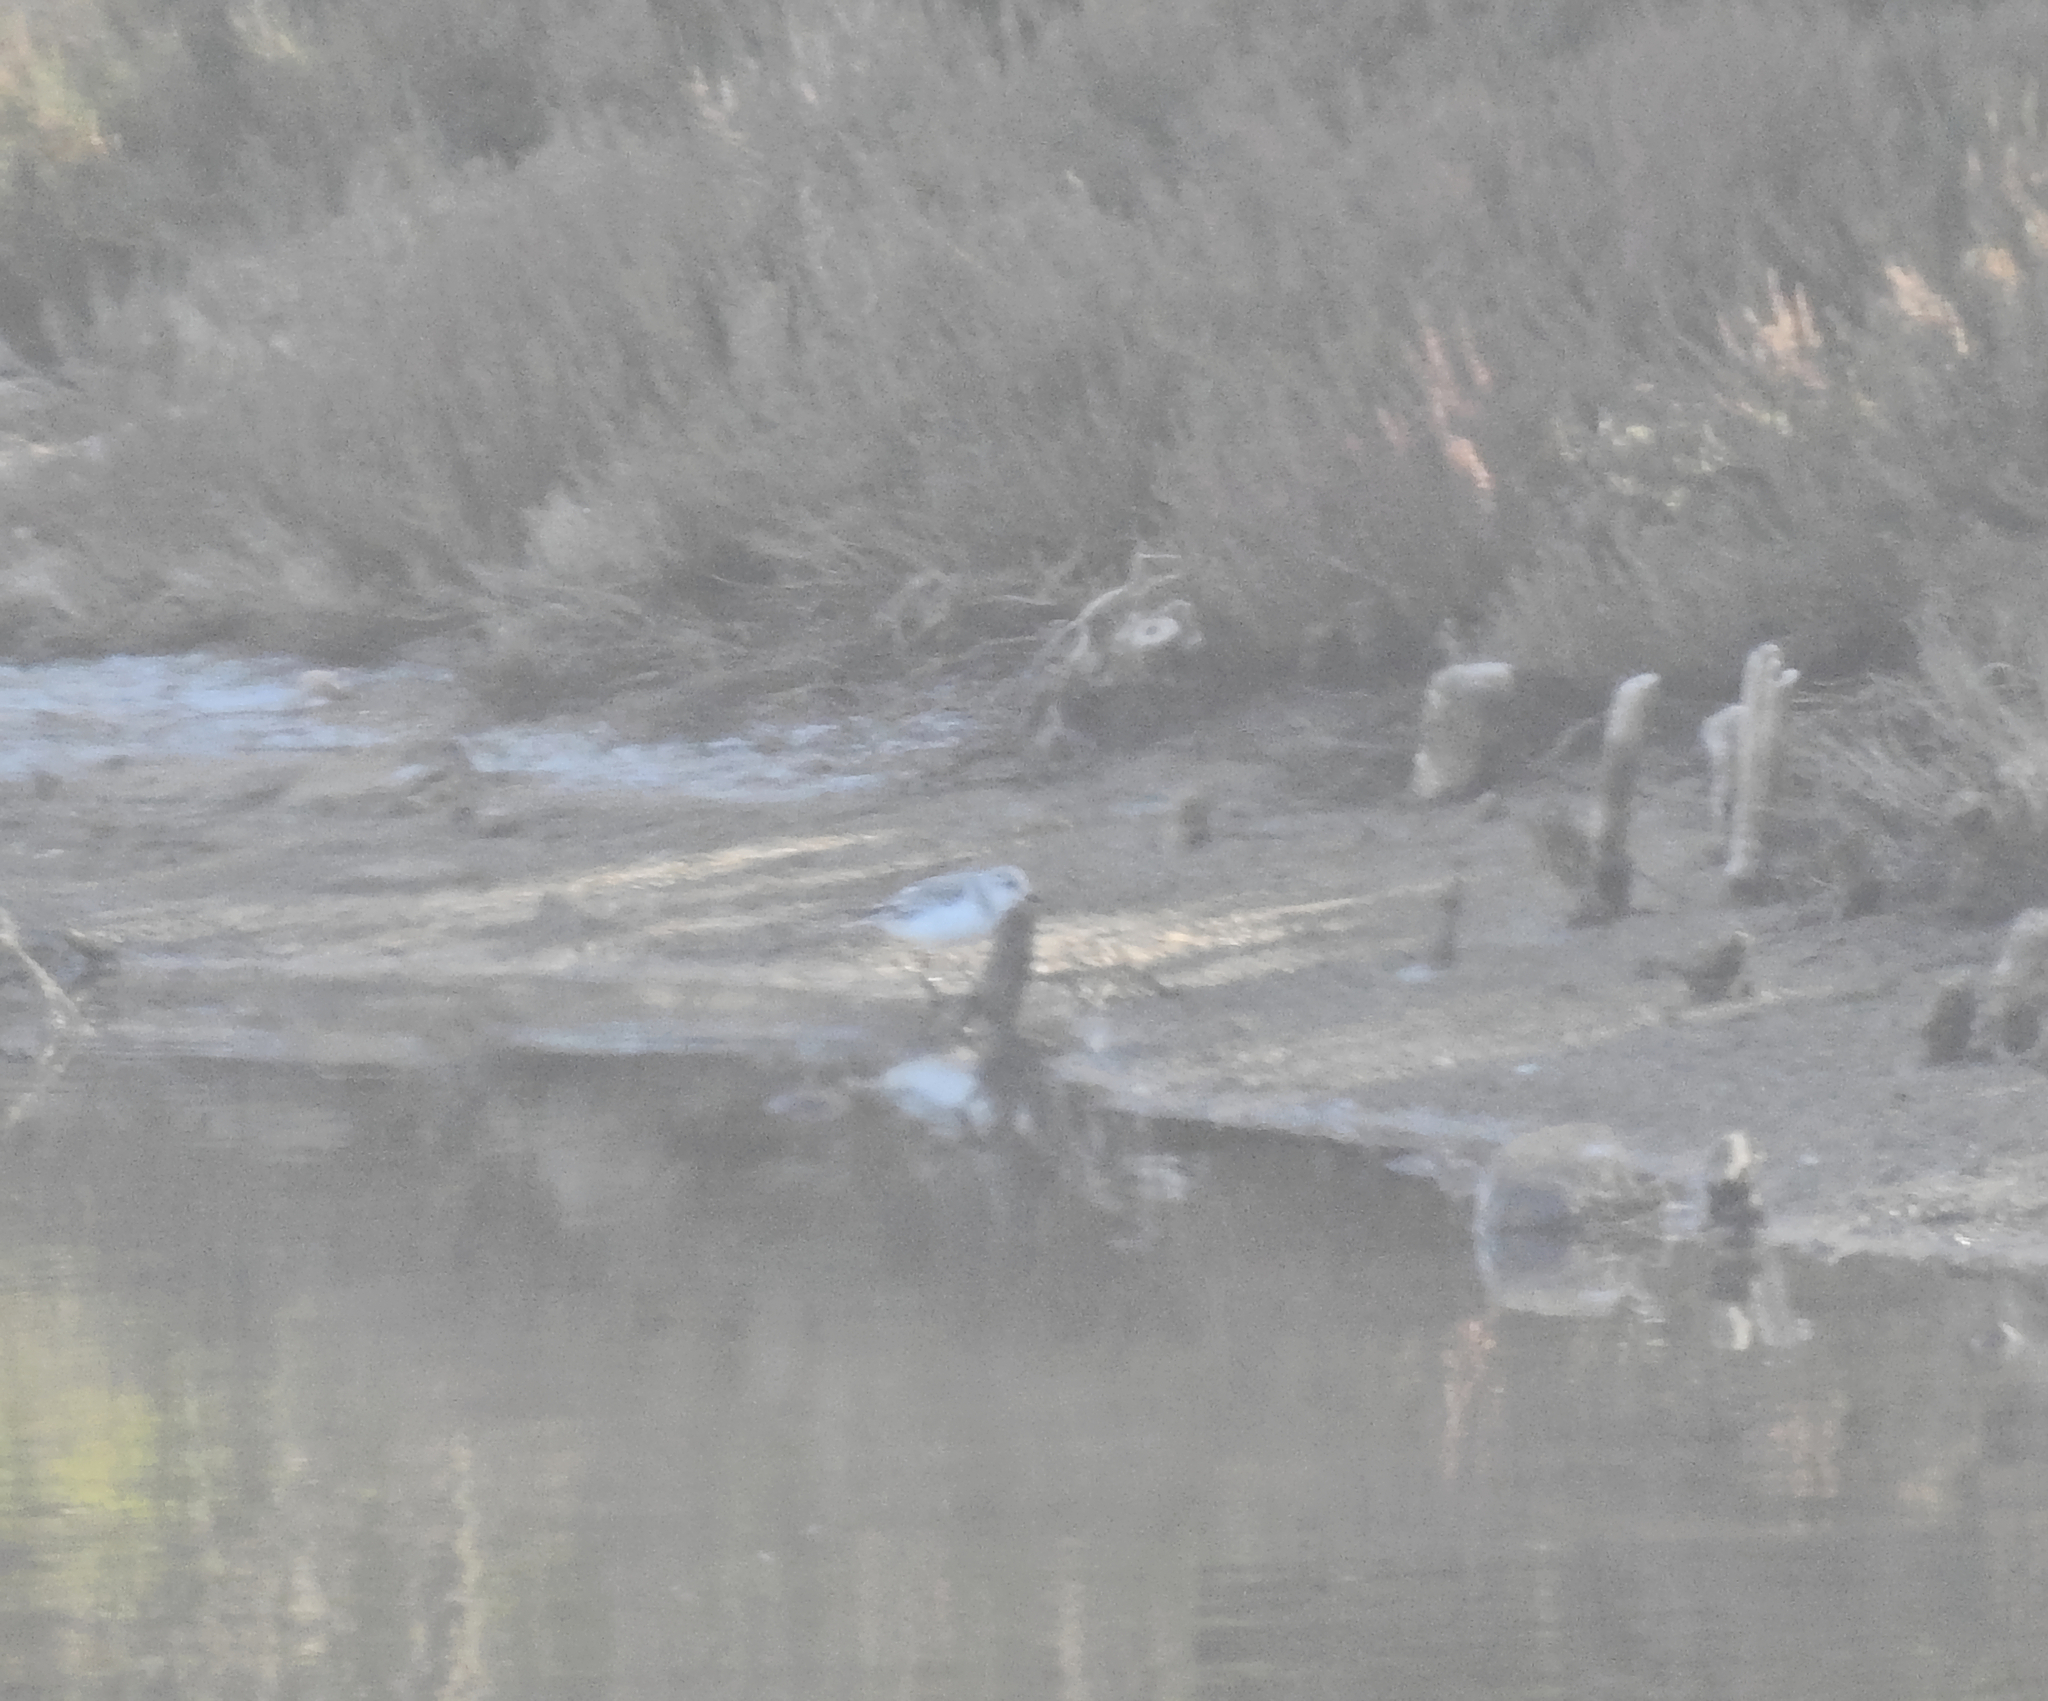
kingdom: Animalia
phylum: Chordata
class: Aves
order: Charadriiformes
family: Scolopacidae
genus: Calidris
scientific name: Calidris alba
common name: Sanderling
